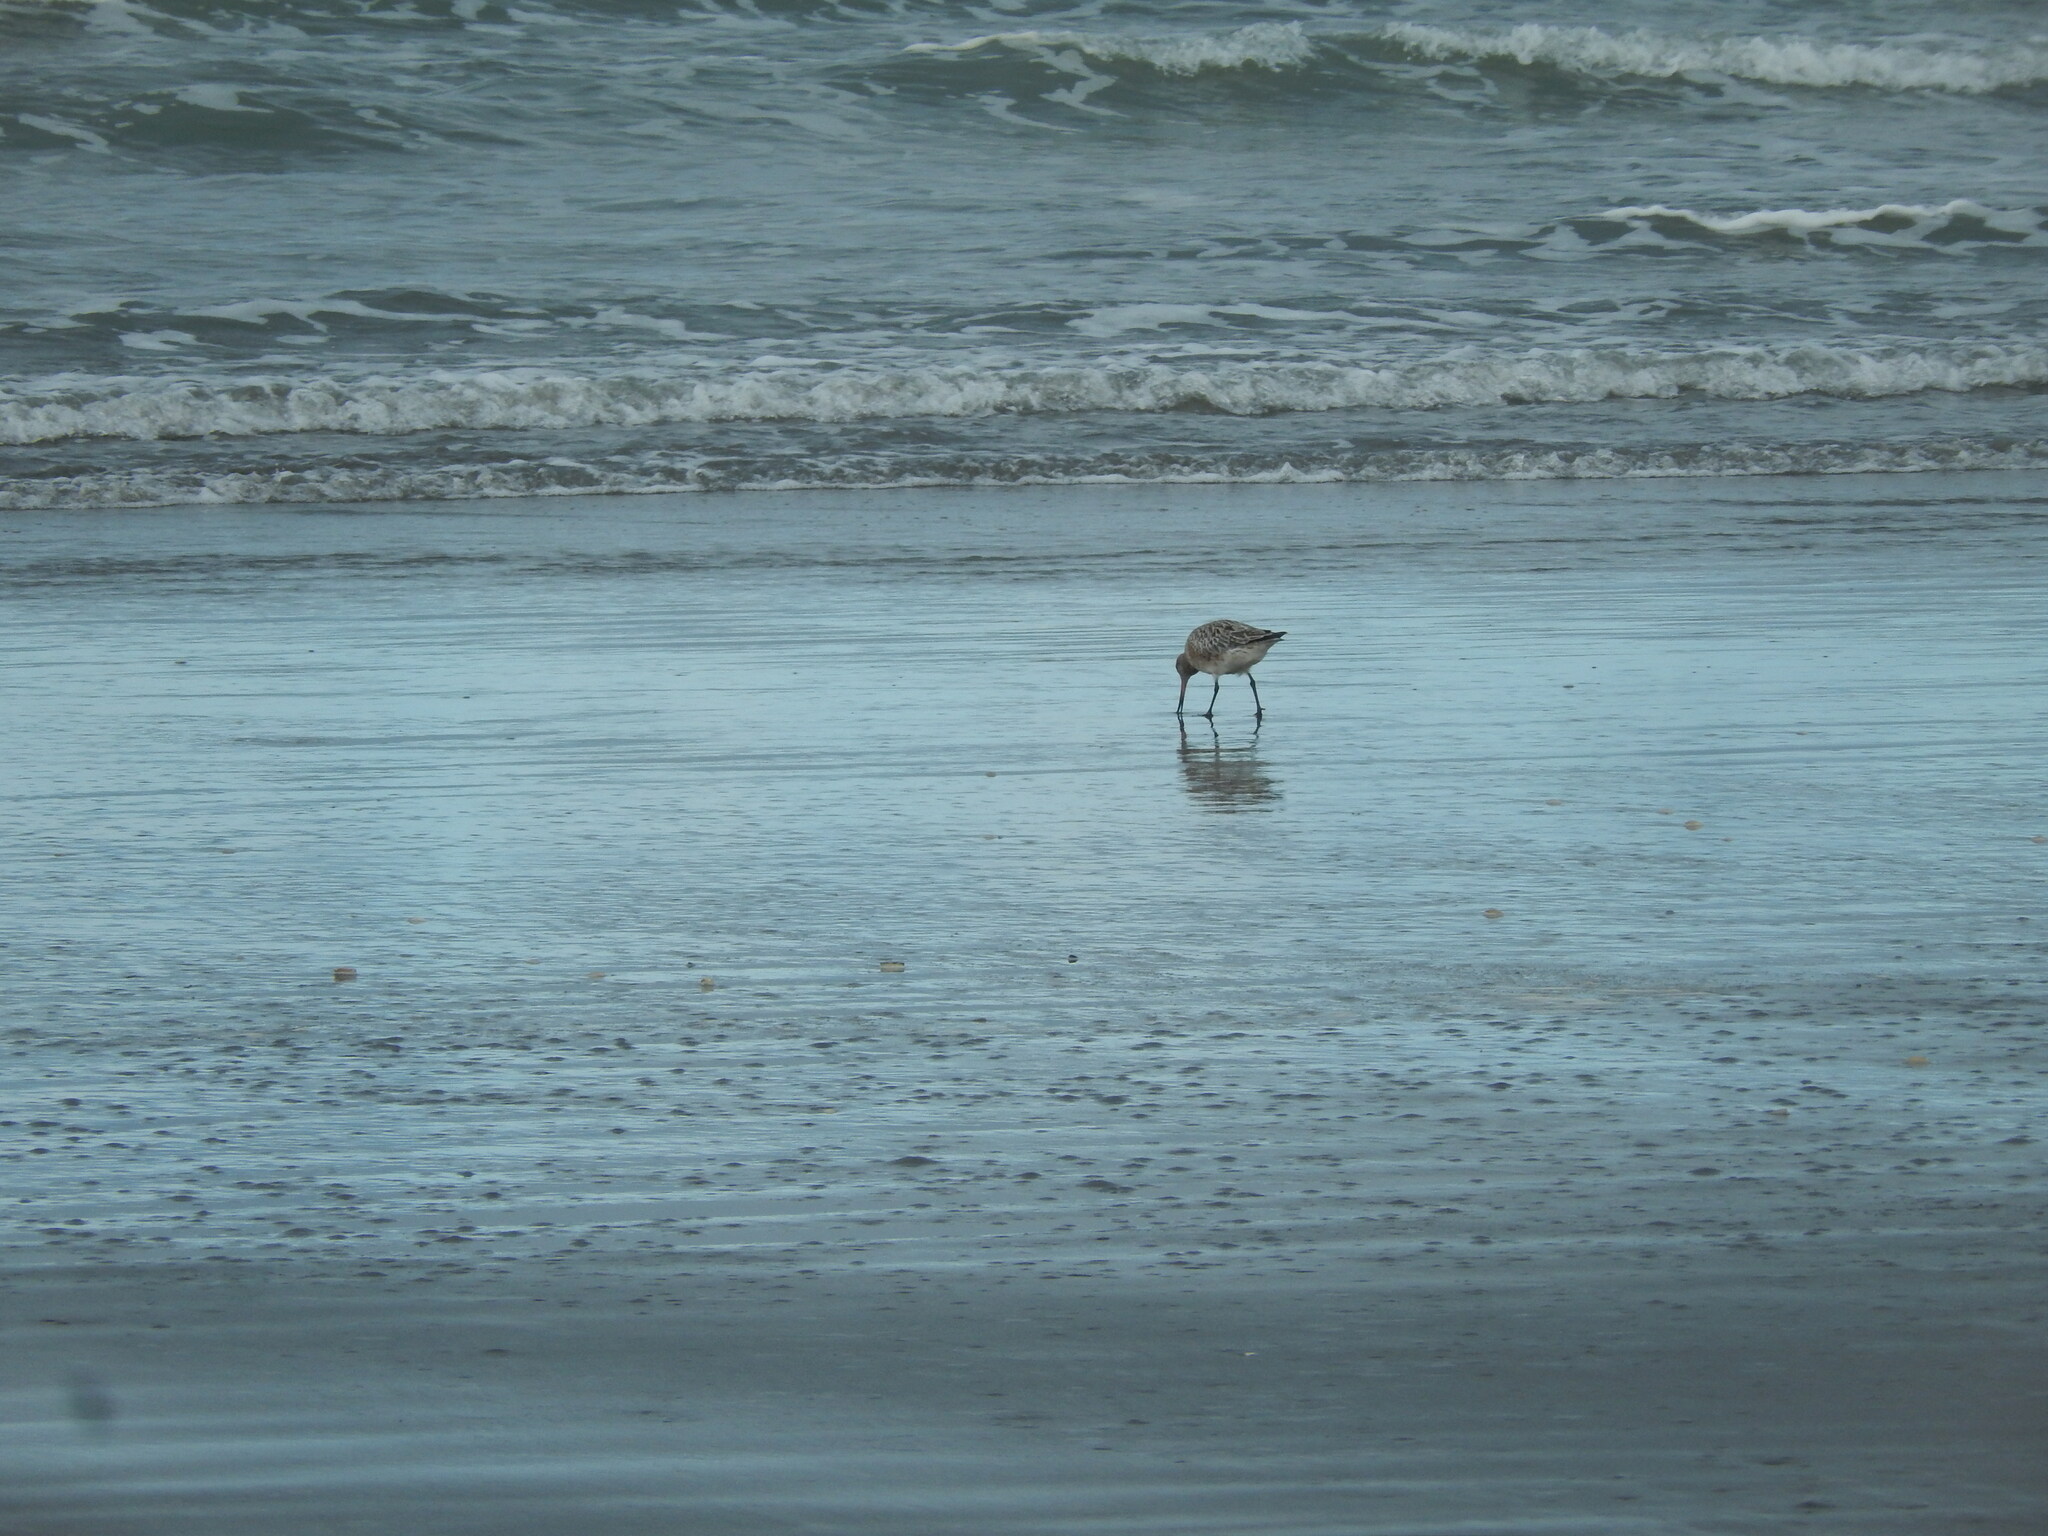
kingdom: Animalia
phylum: Chordata
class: Aves
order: Charadriiformes
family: Scolopacidae
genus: Limosa
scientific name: Limosa lapponica
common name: Bar-tailed godwit
